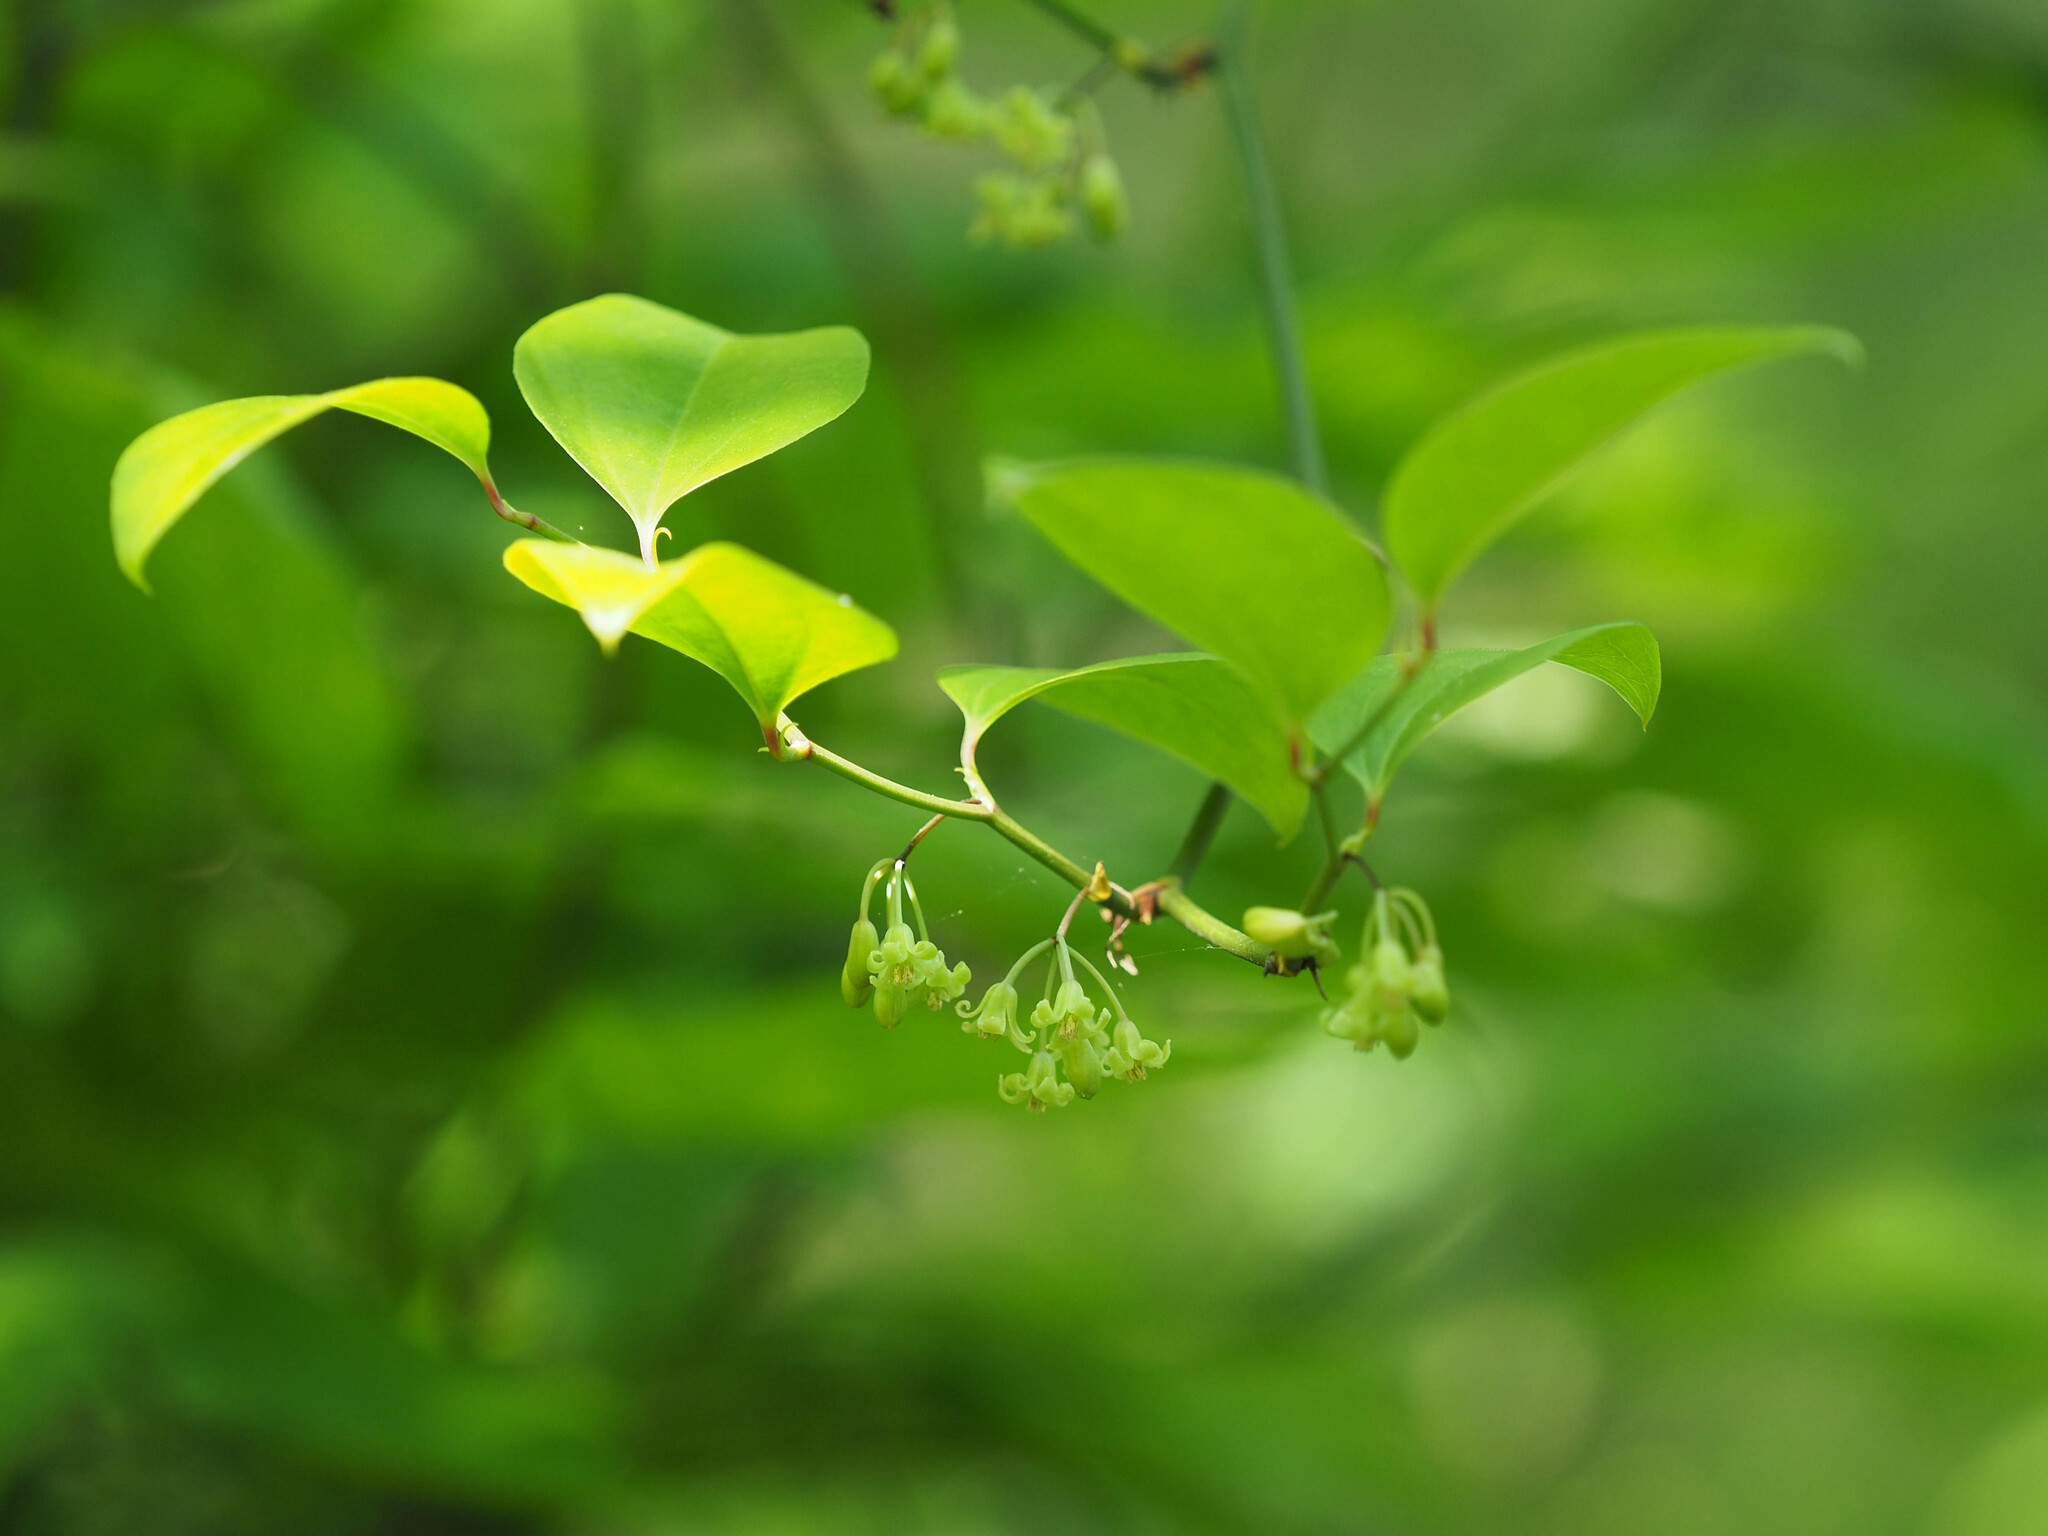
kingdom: Plantae
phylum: Tracheophyta
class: Liliopsida
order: Liliales
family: Smilacaceae
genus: Smilax
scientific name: Smilax rotundifolia
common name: Bullbriar
